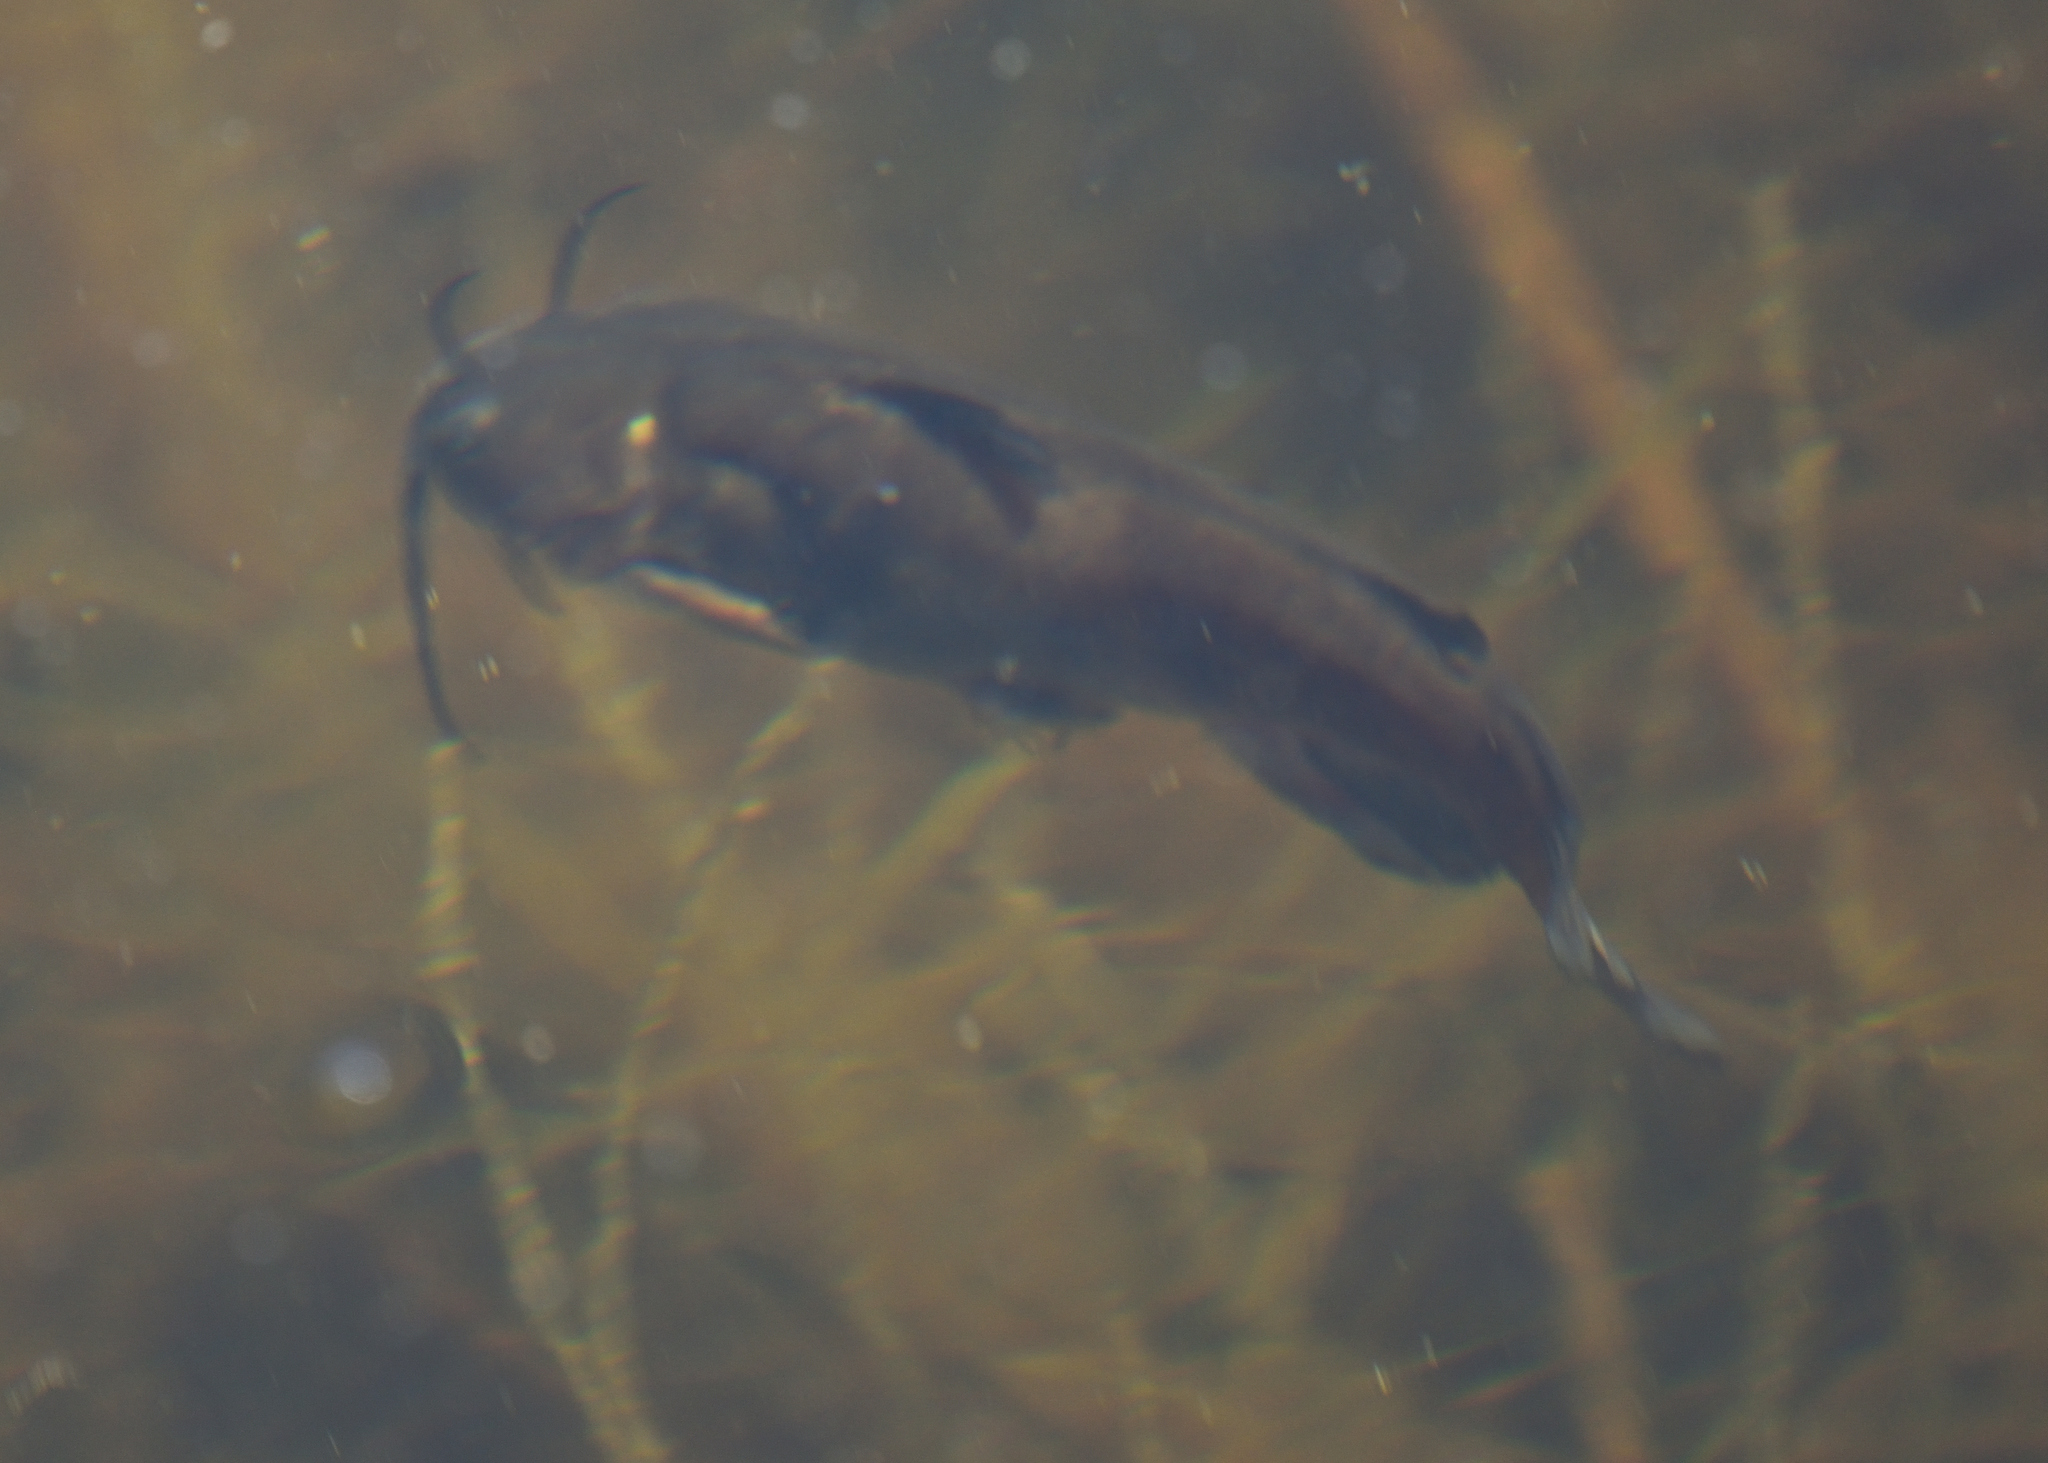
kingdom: Animalia
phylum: Chordata
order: Siluriformes
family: Ictaluridae
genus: Ameiurus
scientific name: Ameiurus nebulosus
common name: Brown bullhead
